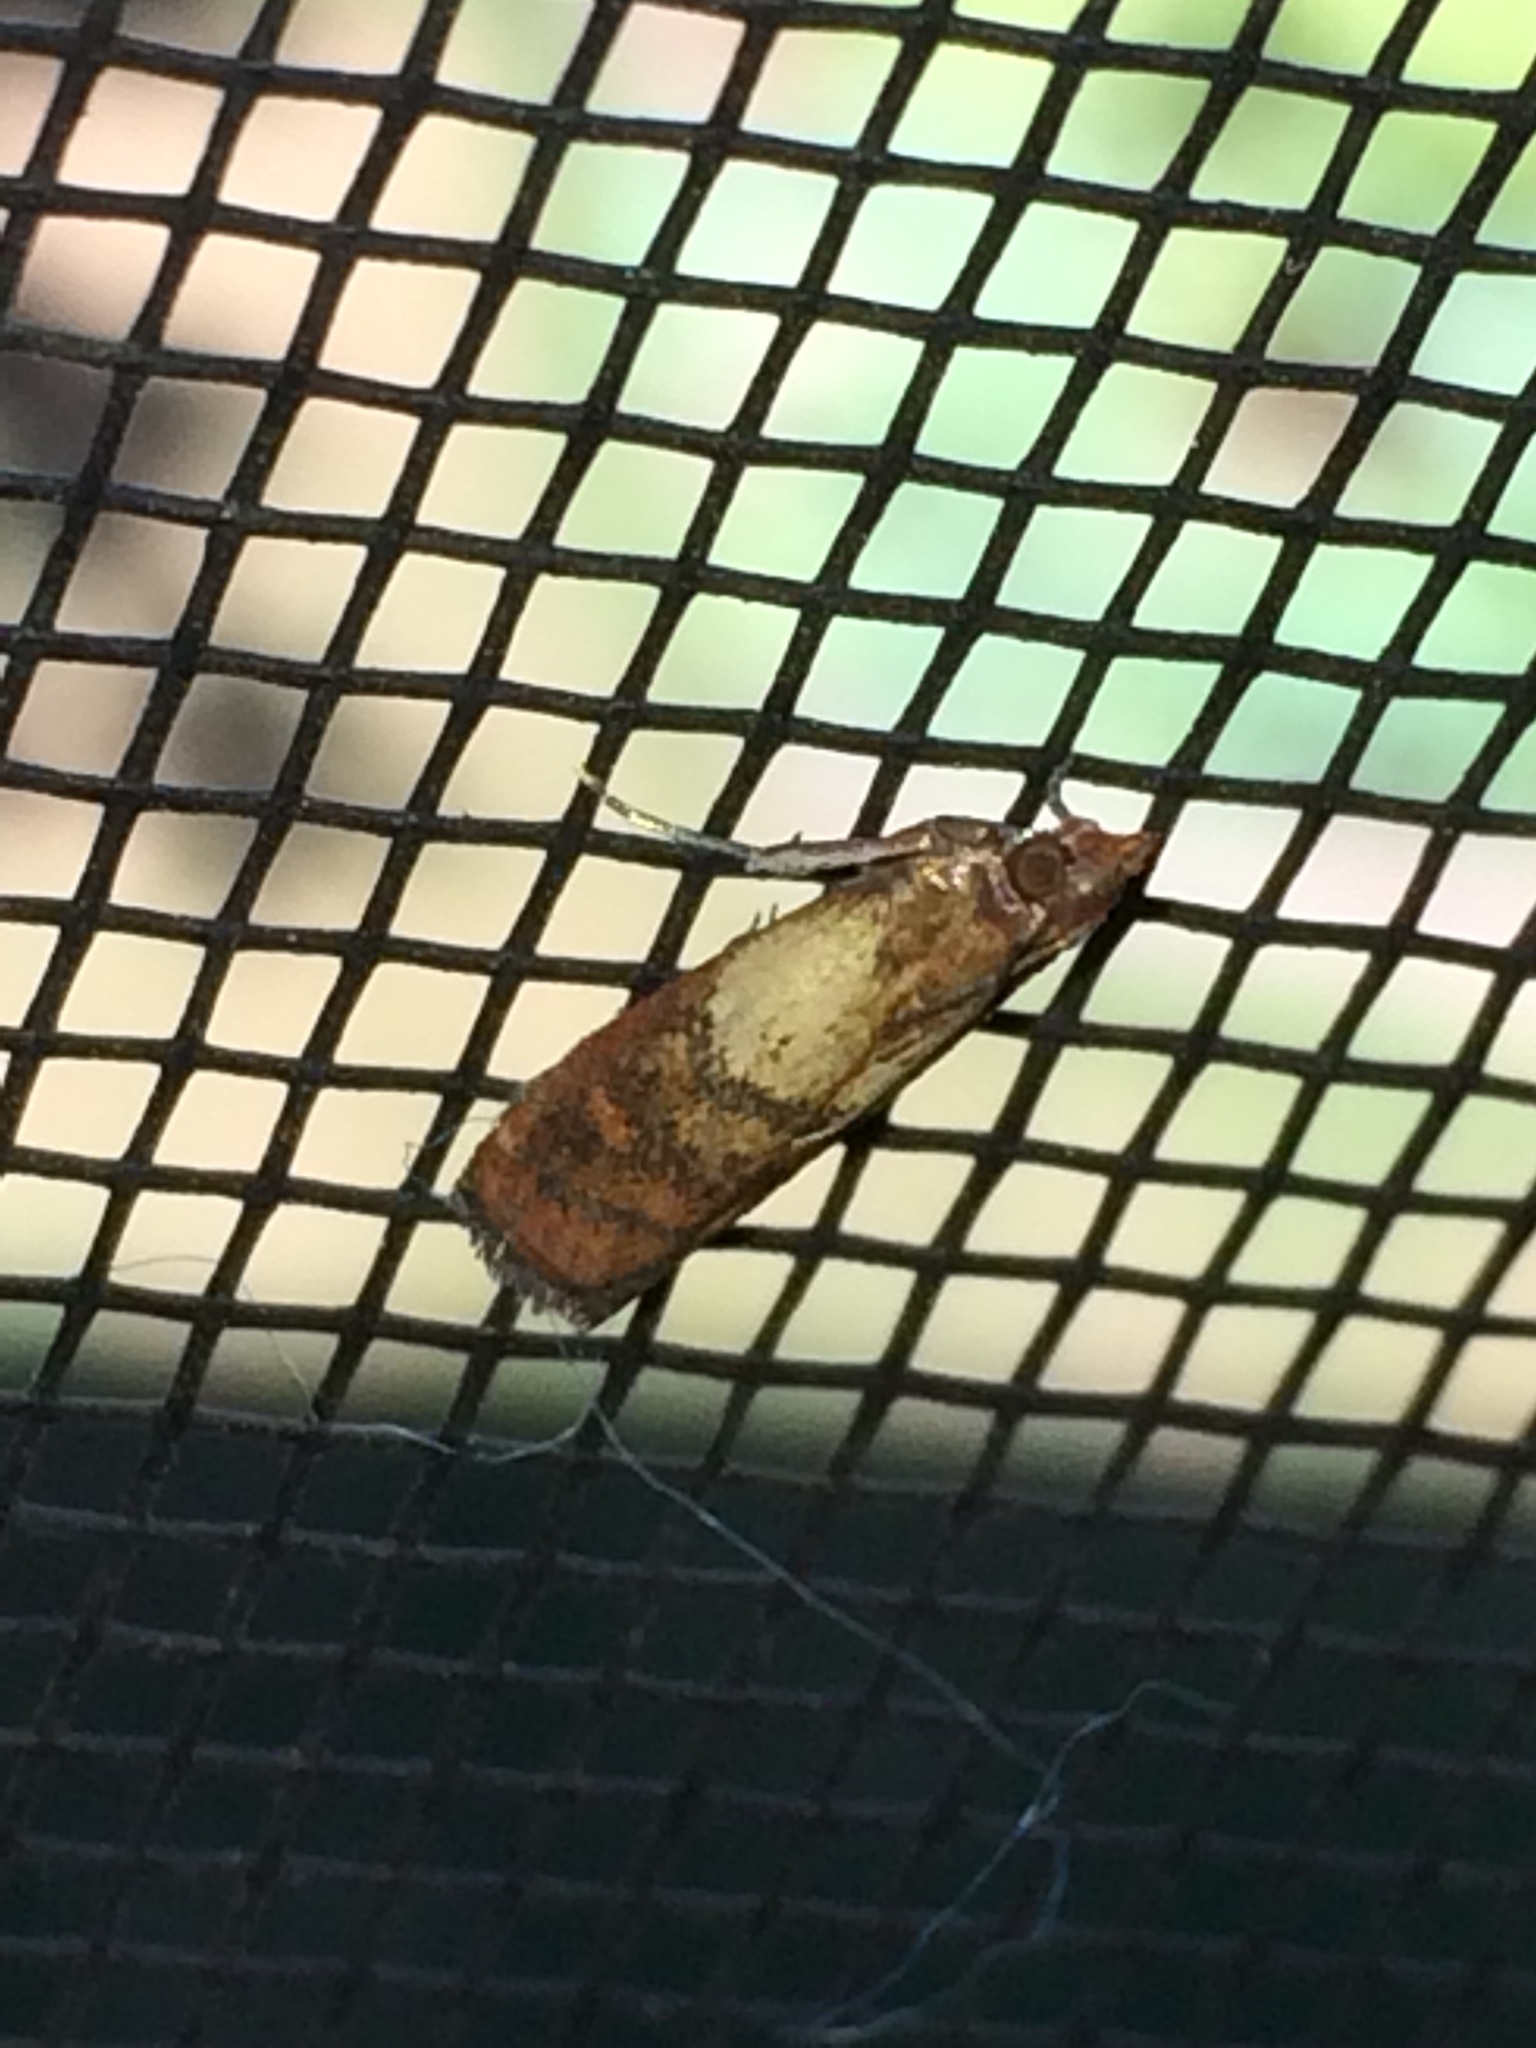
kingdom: Animalia
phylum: Arthropoda
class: Insecta
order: Lepidoptera
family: Pyralidae
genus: Plodia
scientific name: Plodia interpunctella
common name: Indian meal moth
